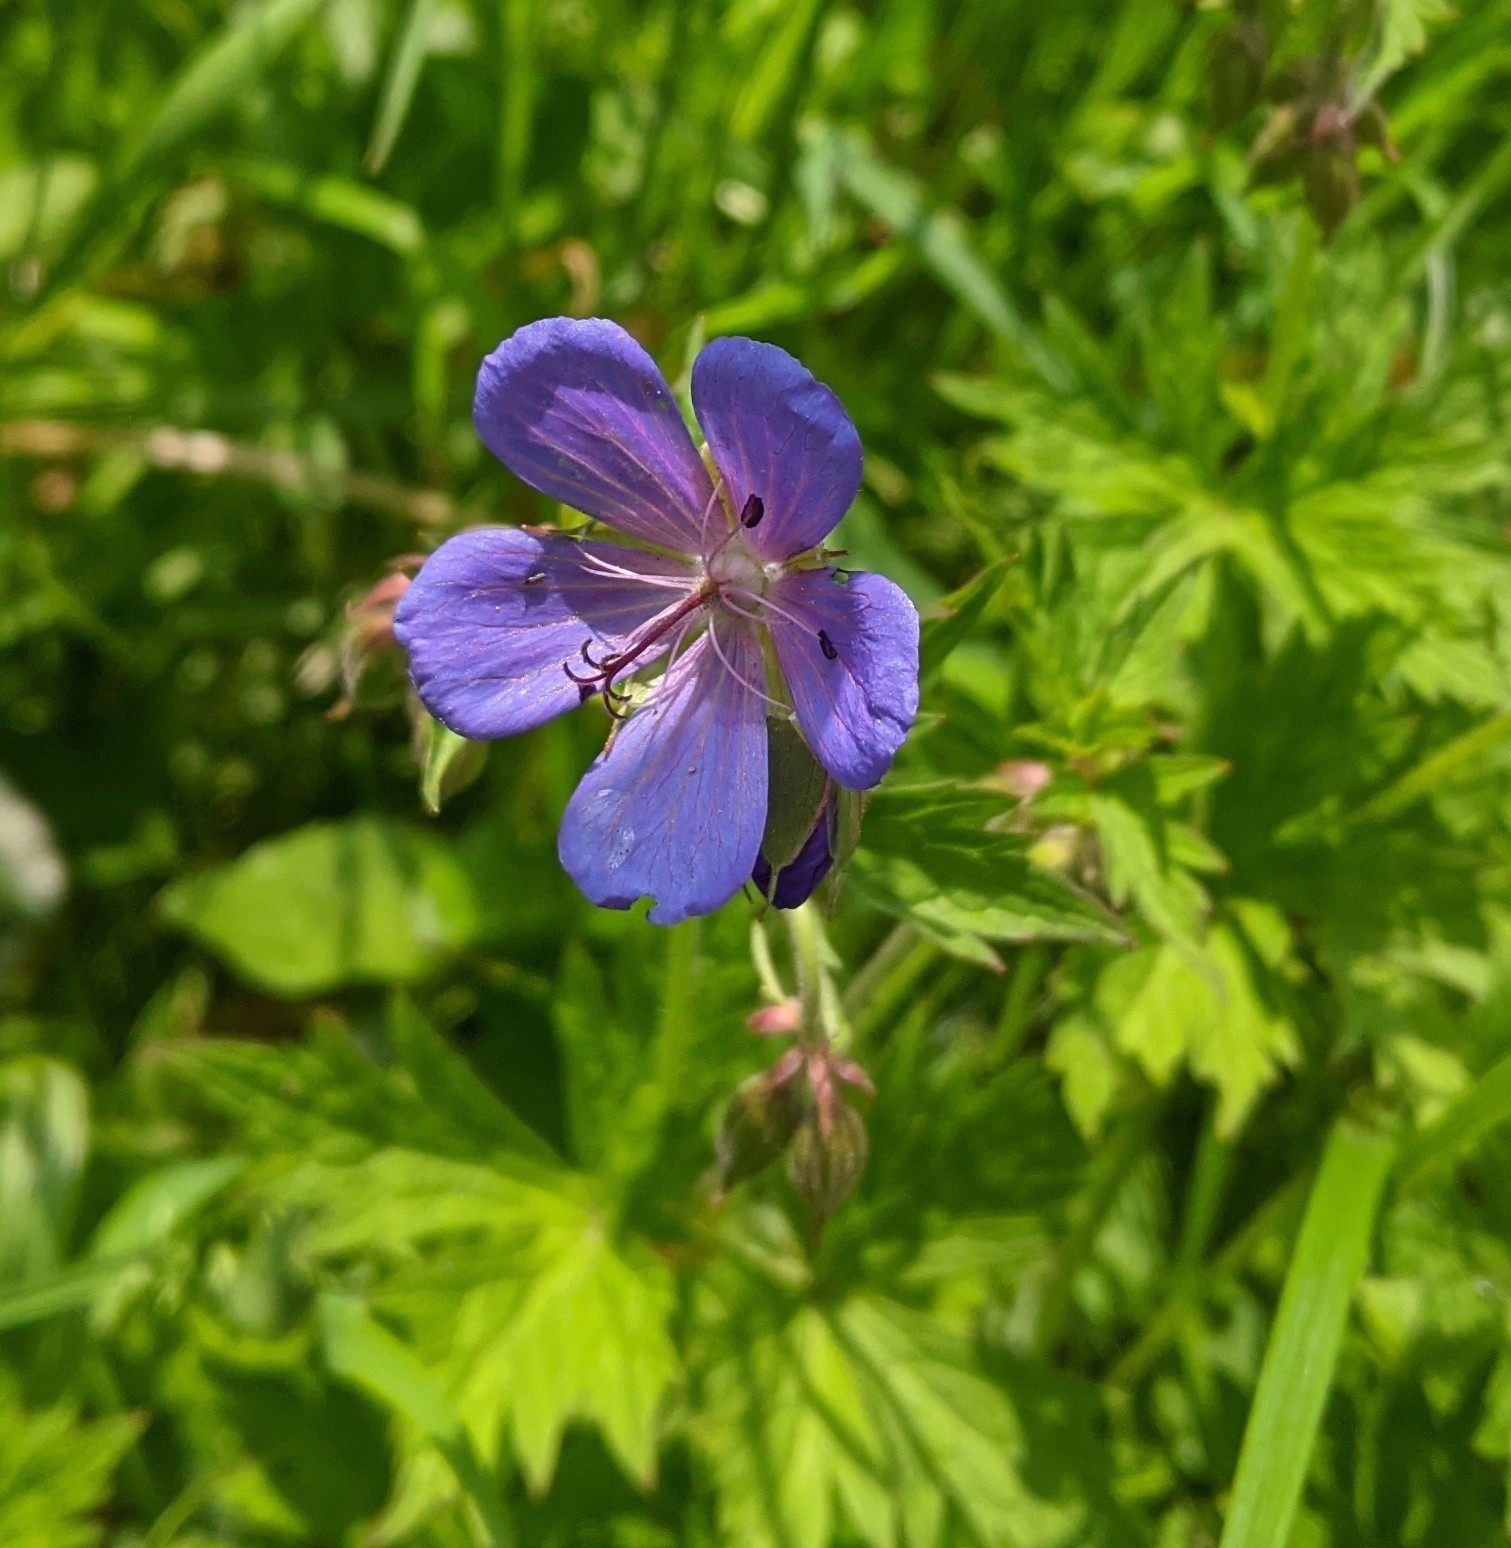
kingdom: Plantae
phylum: Tracheophyta
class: Magnoliopsida
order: Geraniales
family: Geraniaceae
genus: Geranium
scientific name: Geranium pratense
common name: Meadow crane's-bill
